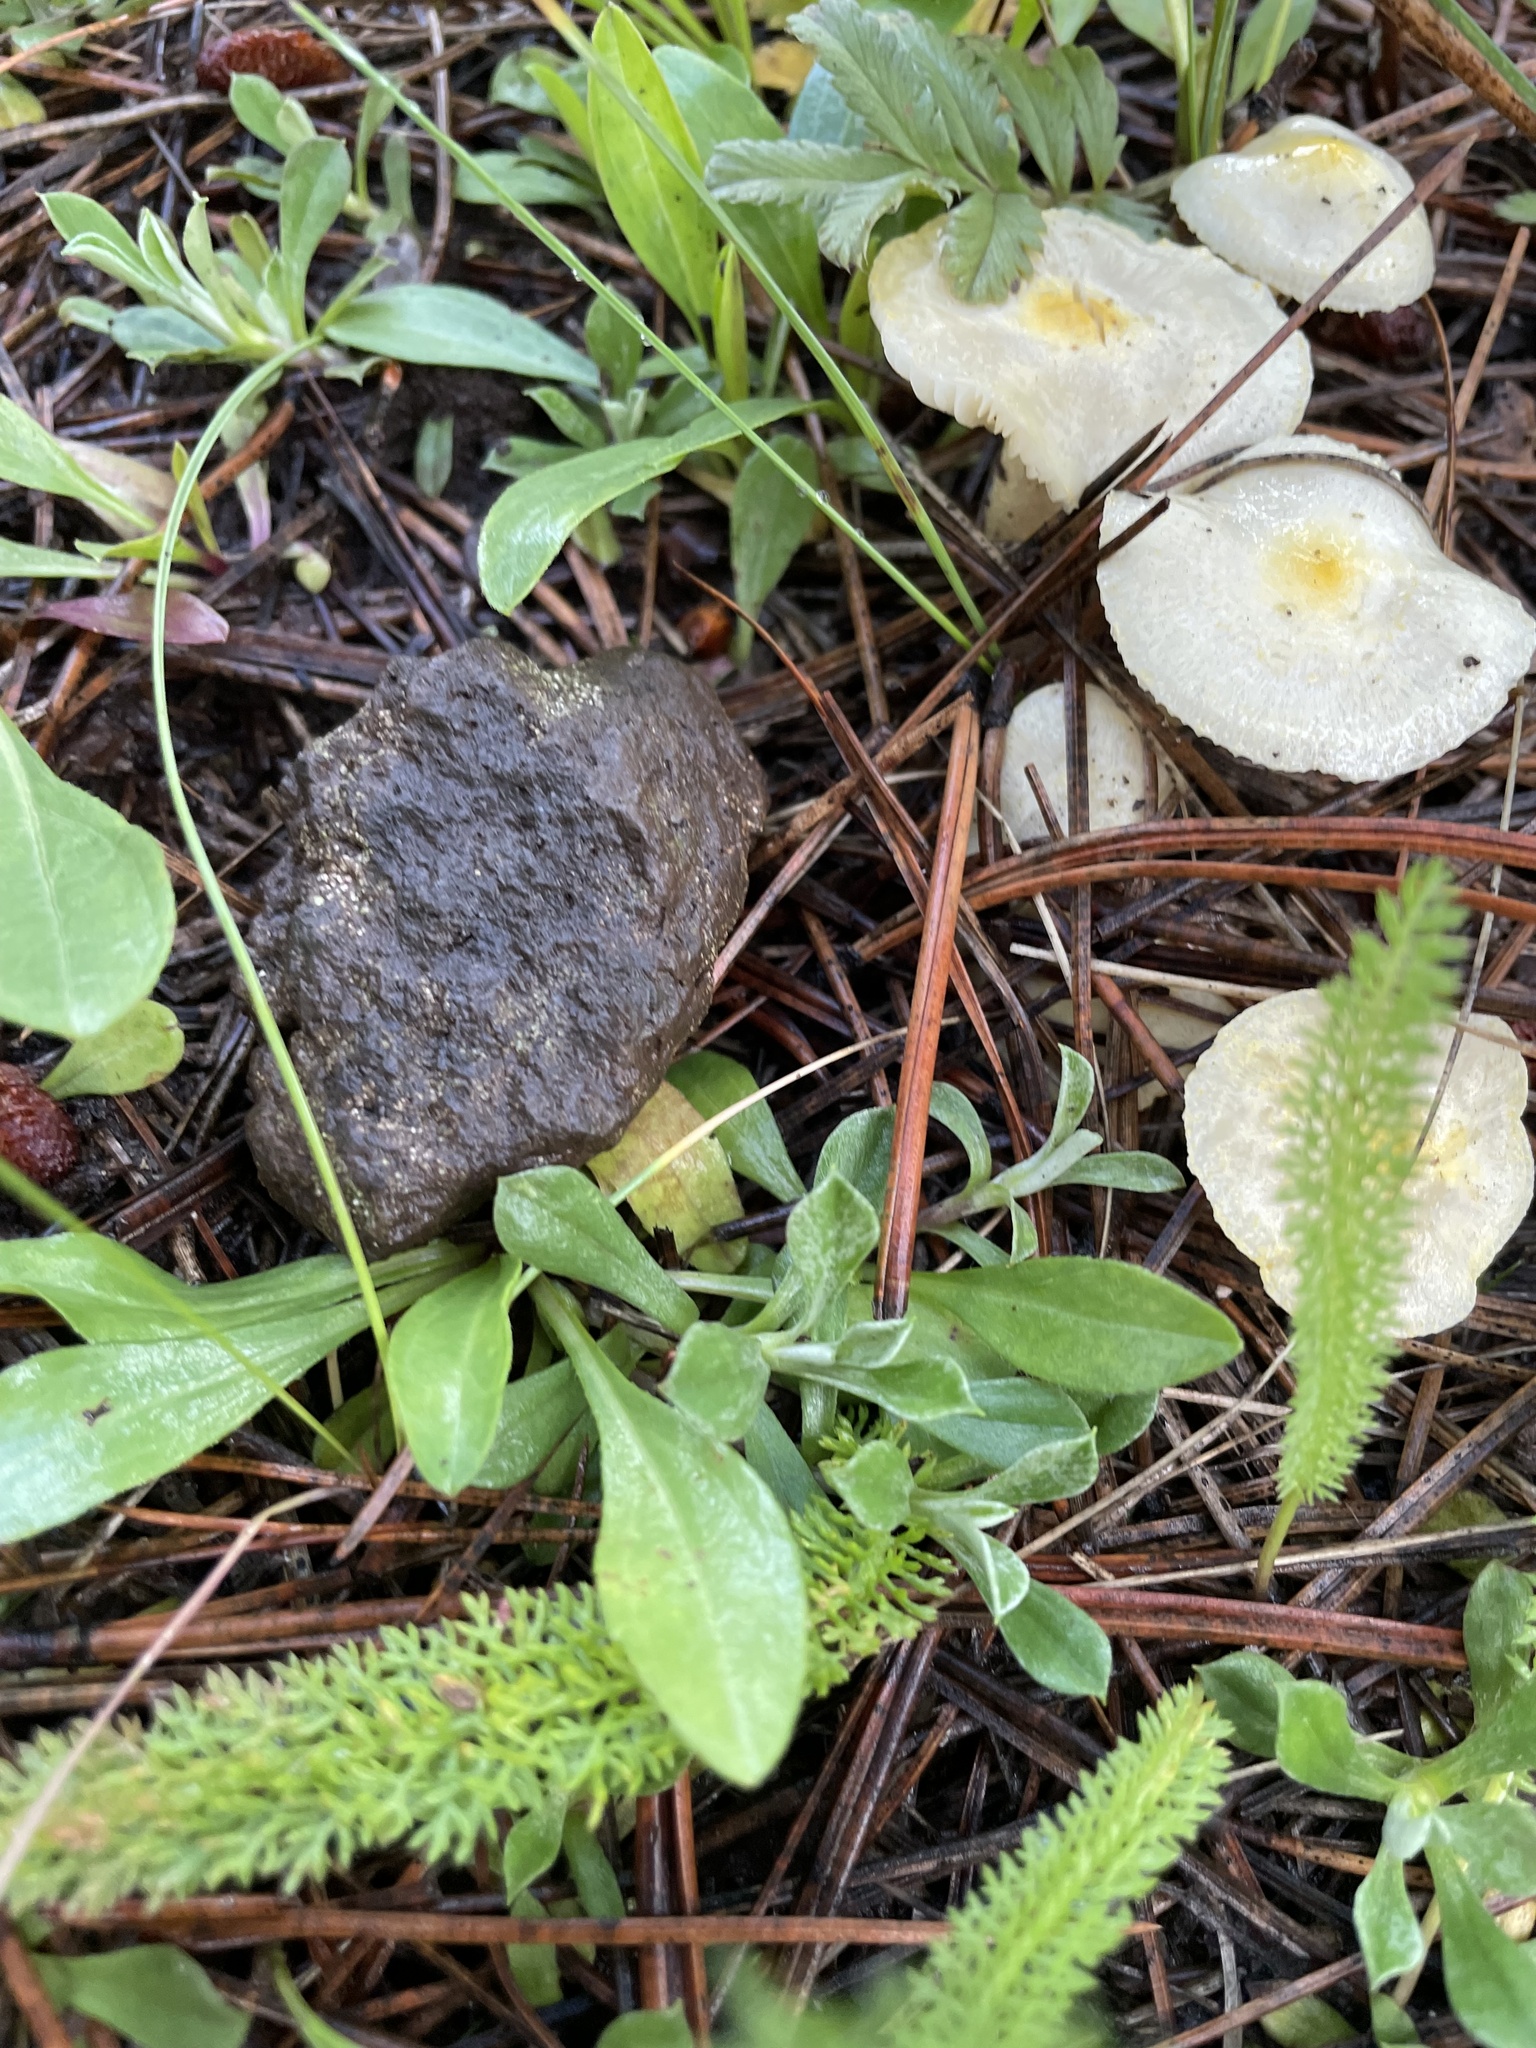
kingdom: Fungi
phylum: Basidiomycota
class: Agaricomycetes
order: Agaricales
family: Hygrophoraceae
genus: Hygrophorus
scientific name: Hygrophorus chrysodon
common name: Gold flecked woodwax
